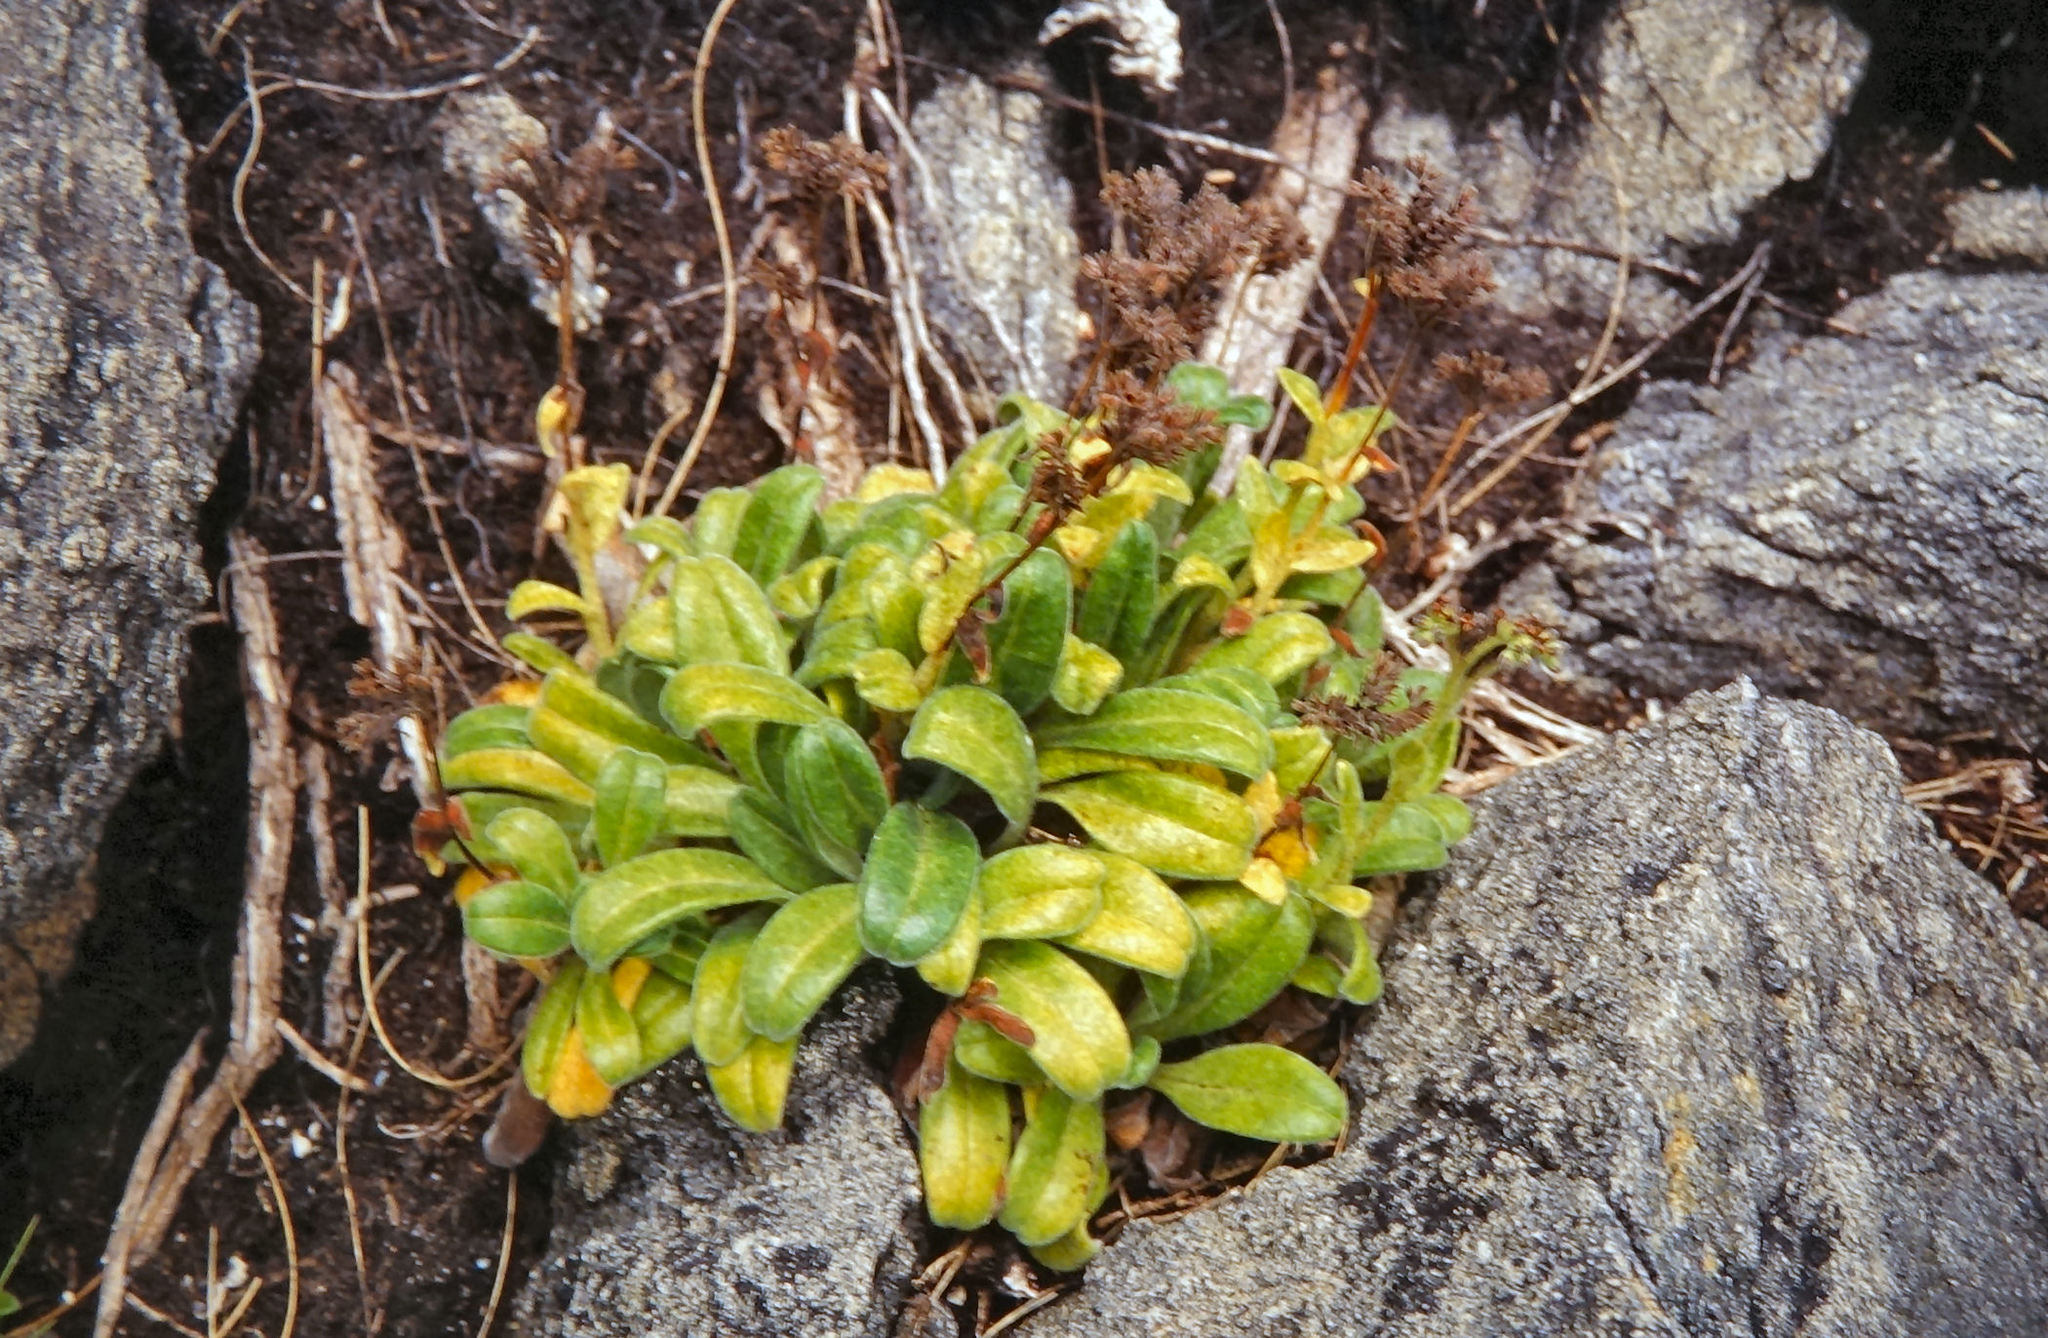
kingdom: Plantae
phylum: Tracheophyta
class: Magnoliopsida
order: Boraginales
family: Boraginaceae
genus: Myosotis
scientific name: Myosotis rakiura
